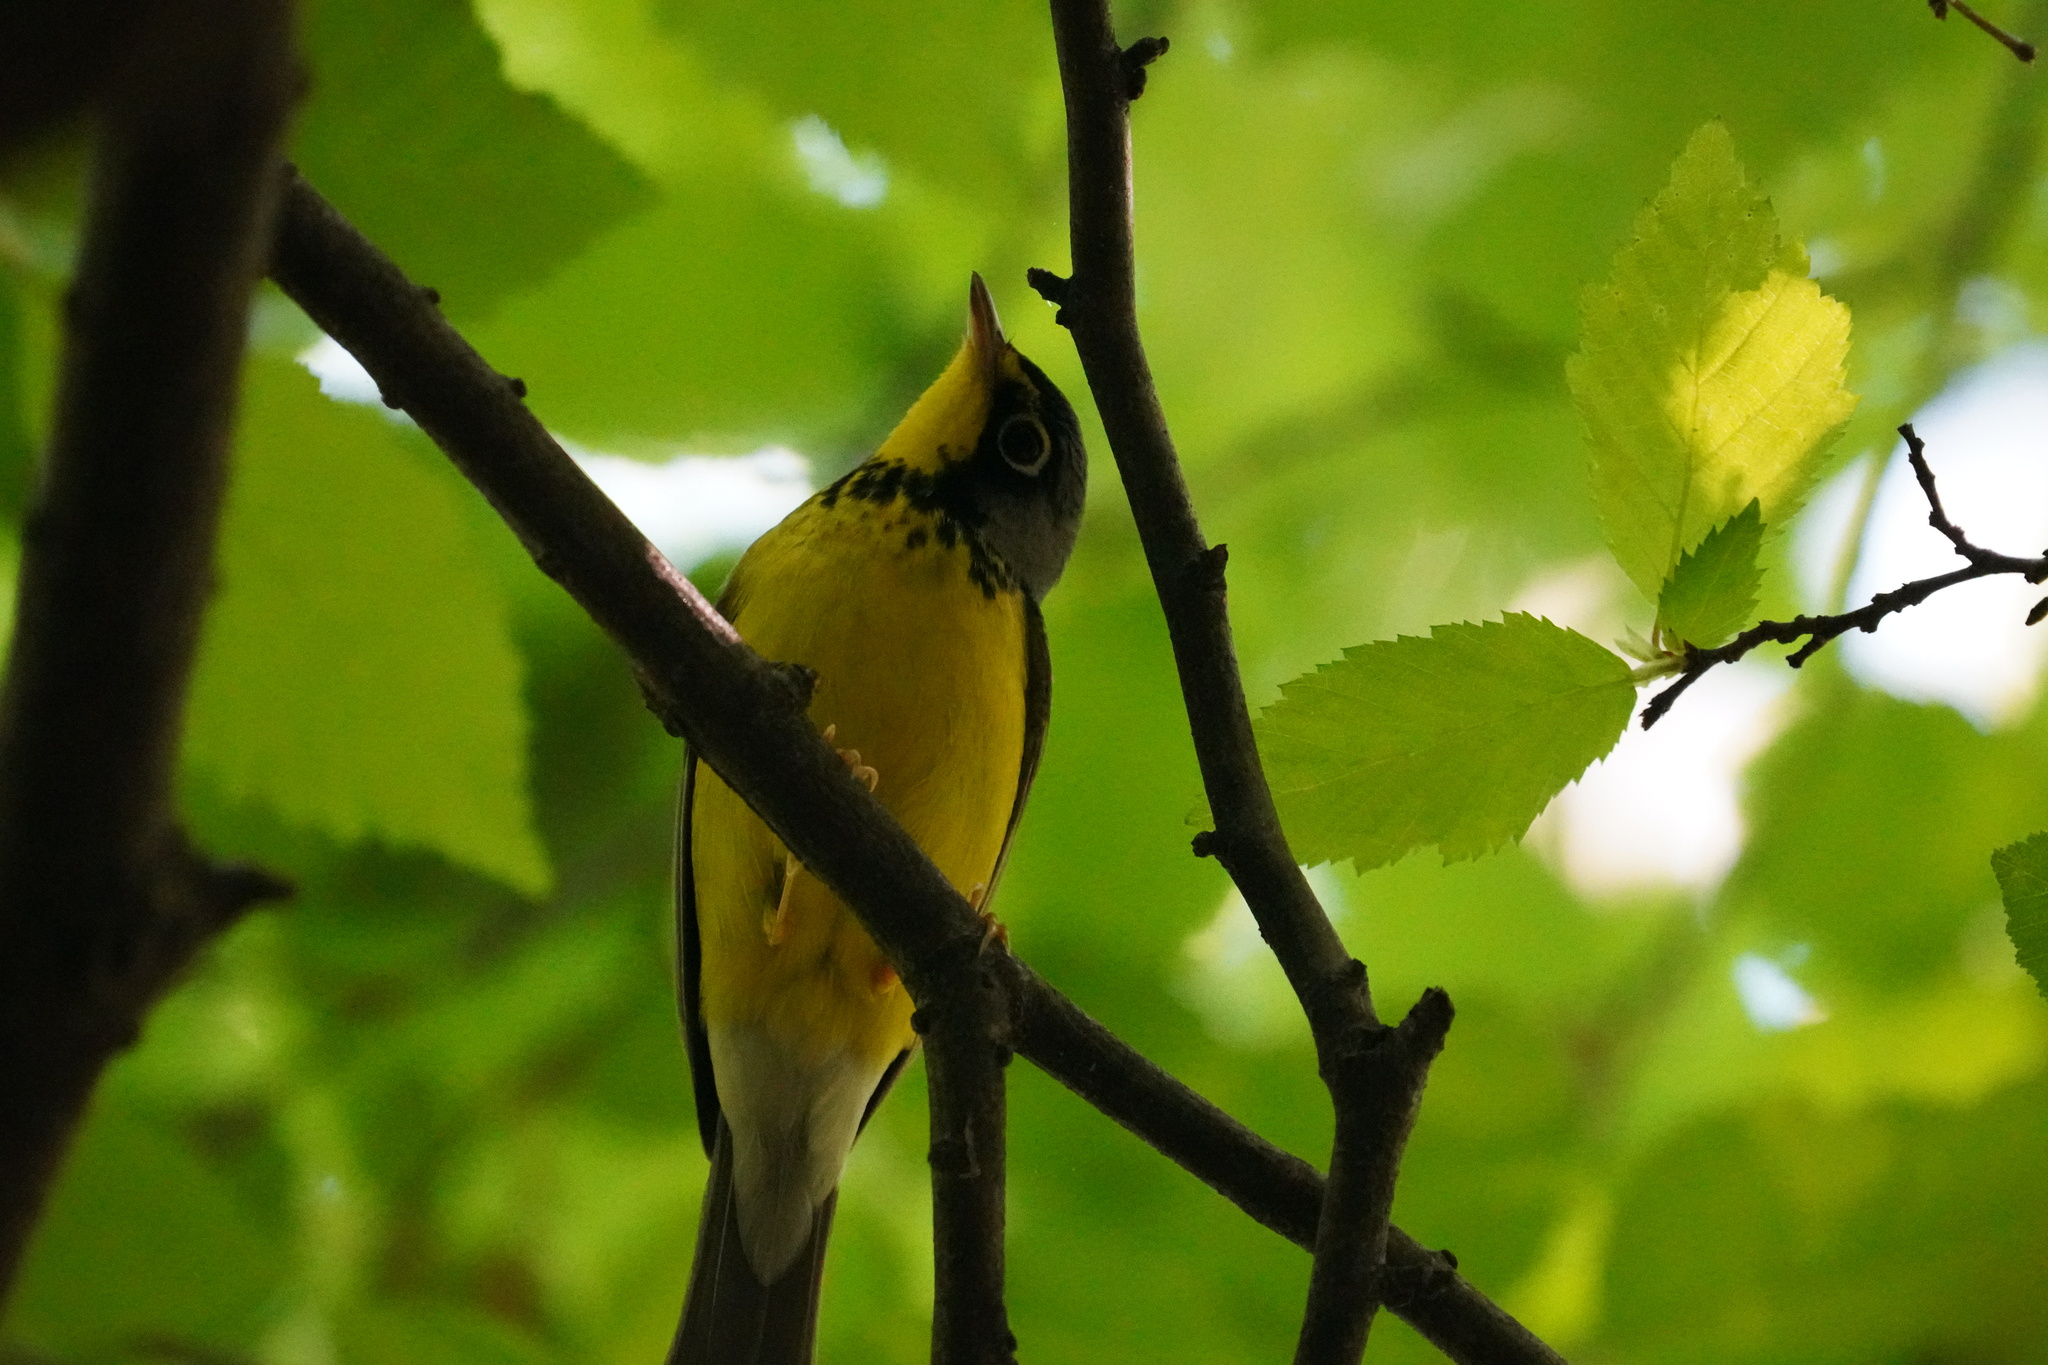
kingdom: Animalia
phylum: Chordata
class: Aves
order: Passeriformes
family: Parulidae
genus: Cardellina
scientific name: Cardellina canadensis
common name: Canada warbler
